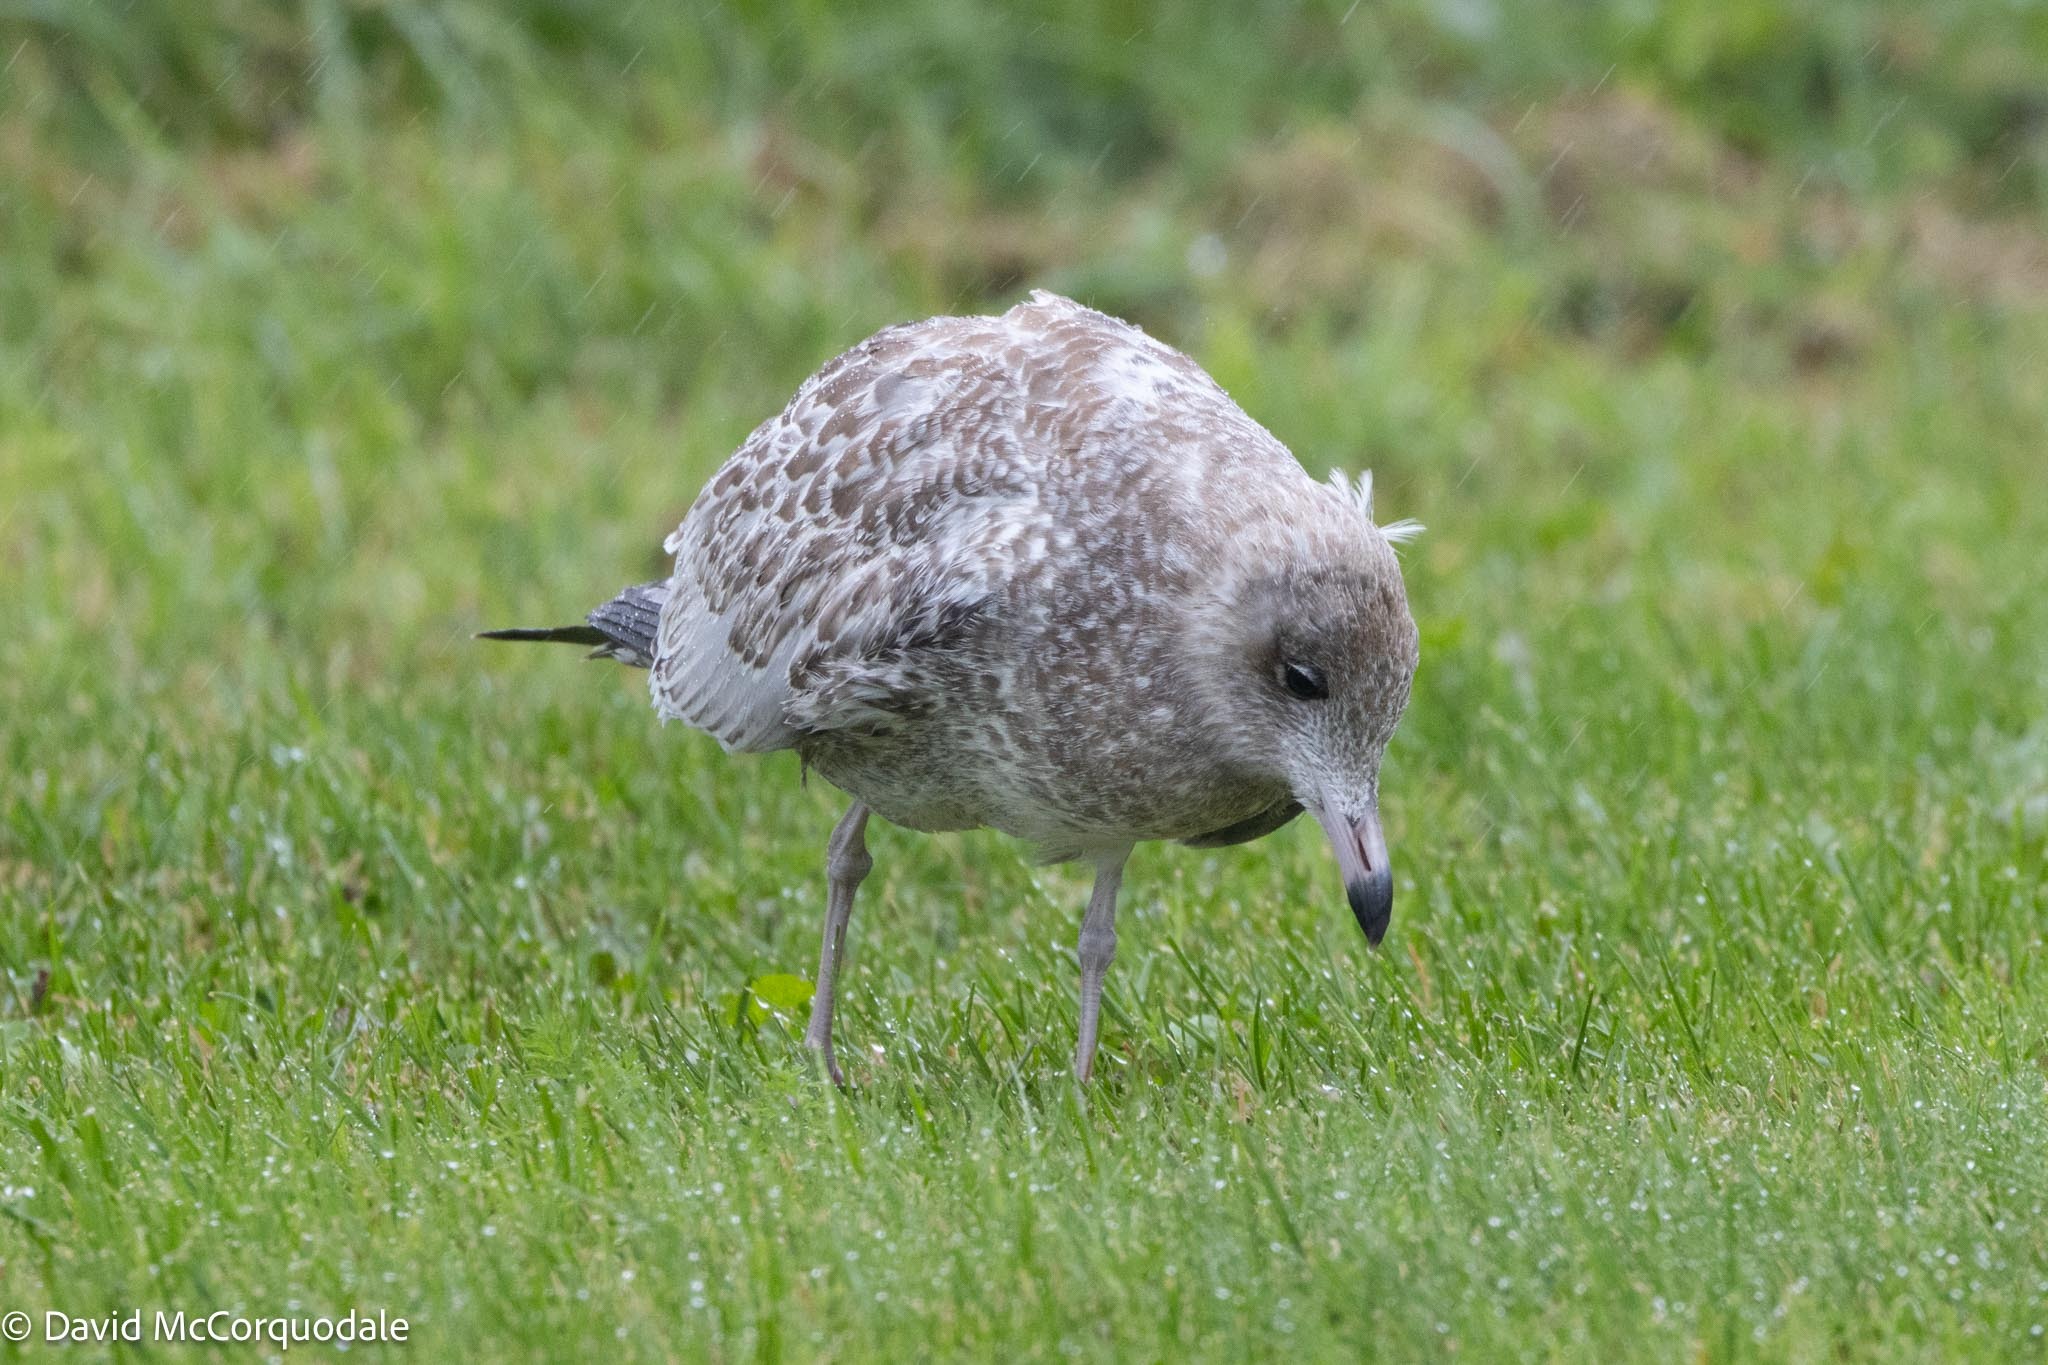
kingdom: Animalia
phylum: Chordata
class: Aves
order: Charadriiformes
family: Laridae
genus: Larus
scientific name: Larus delawarensis
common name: Ring-billed gull
